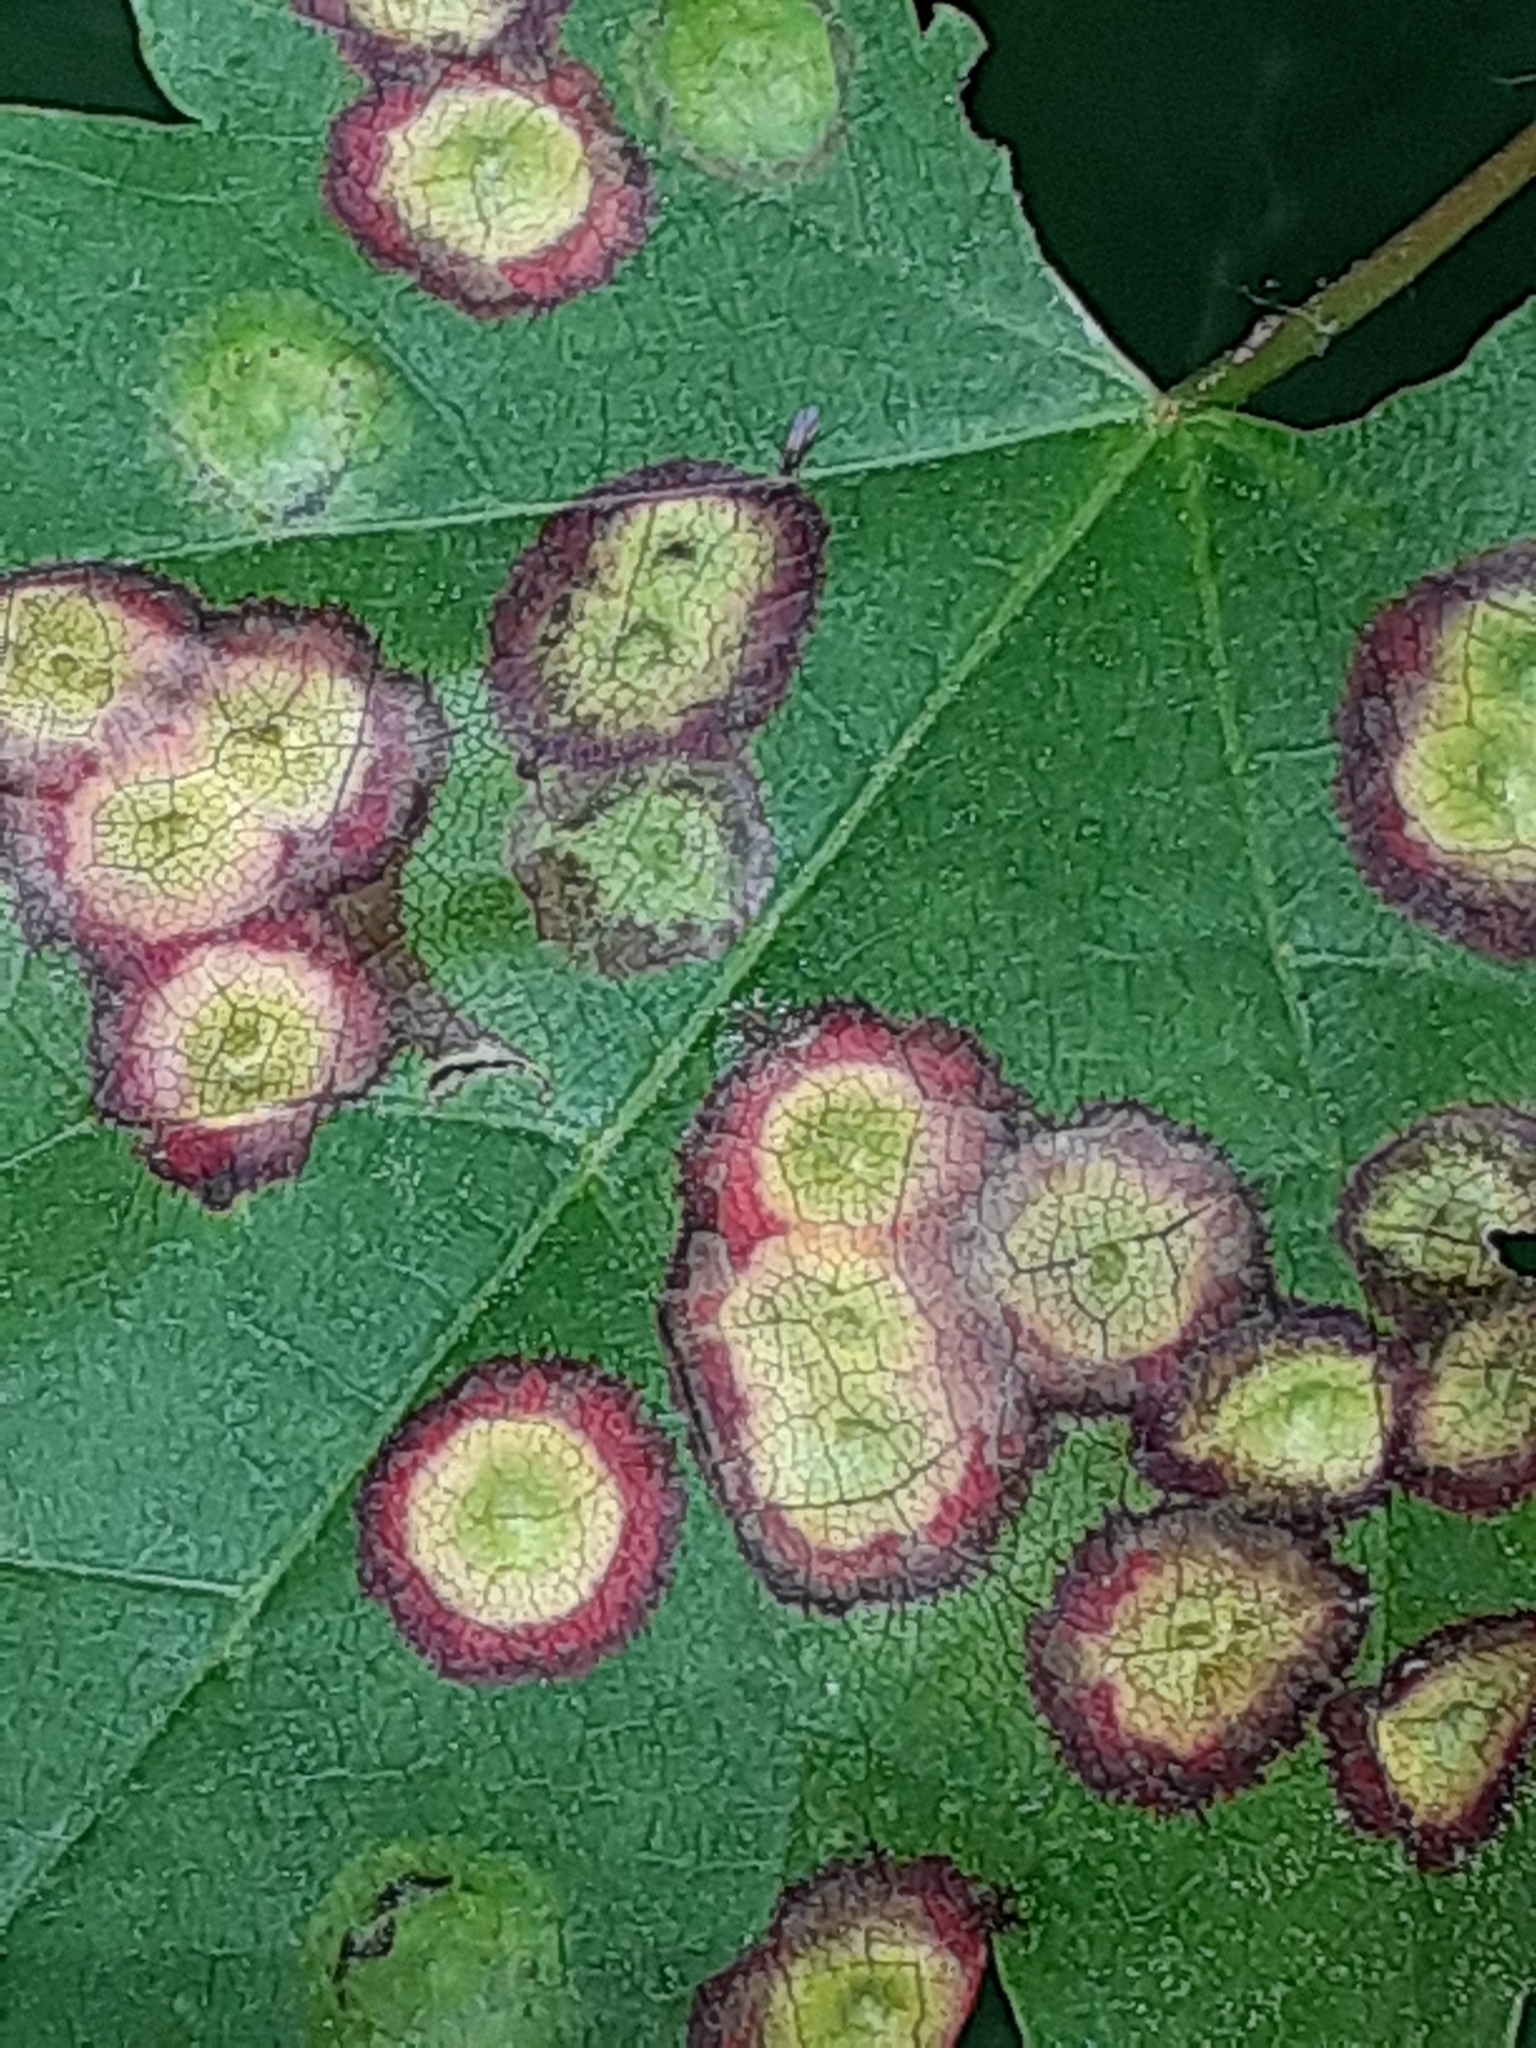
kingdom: Animalia
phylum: Arthropoda
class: Insecta
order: Diptera
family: Cecidomyiidae
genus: Acericecis
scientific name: Acericecis ocellaris
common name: Ocellate gall midge
